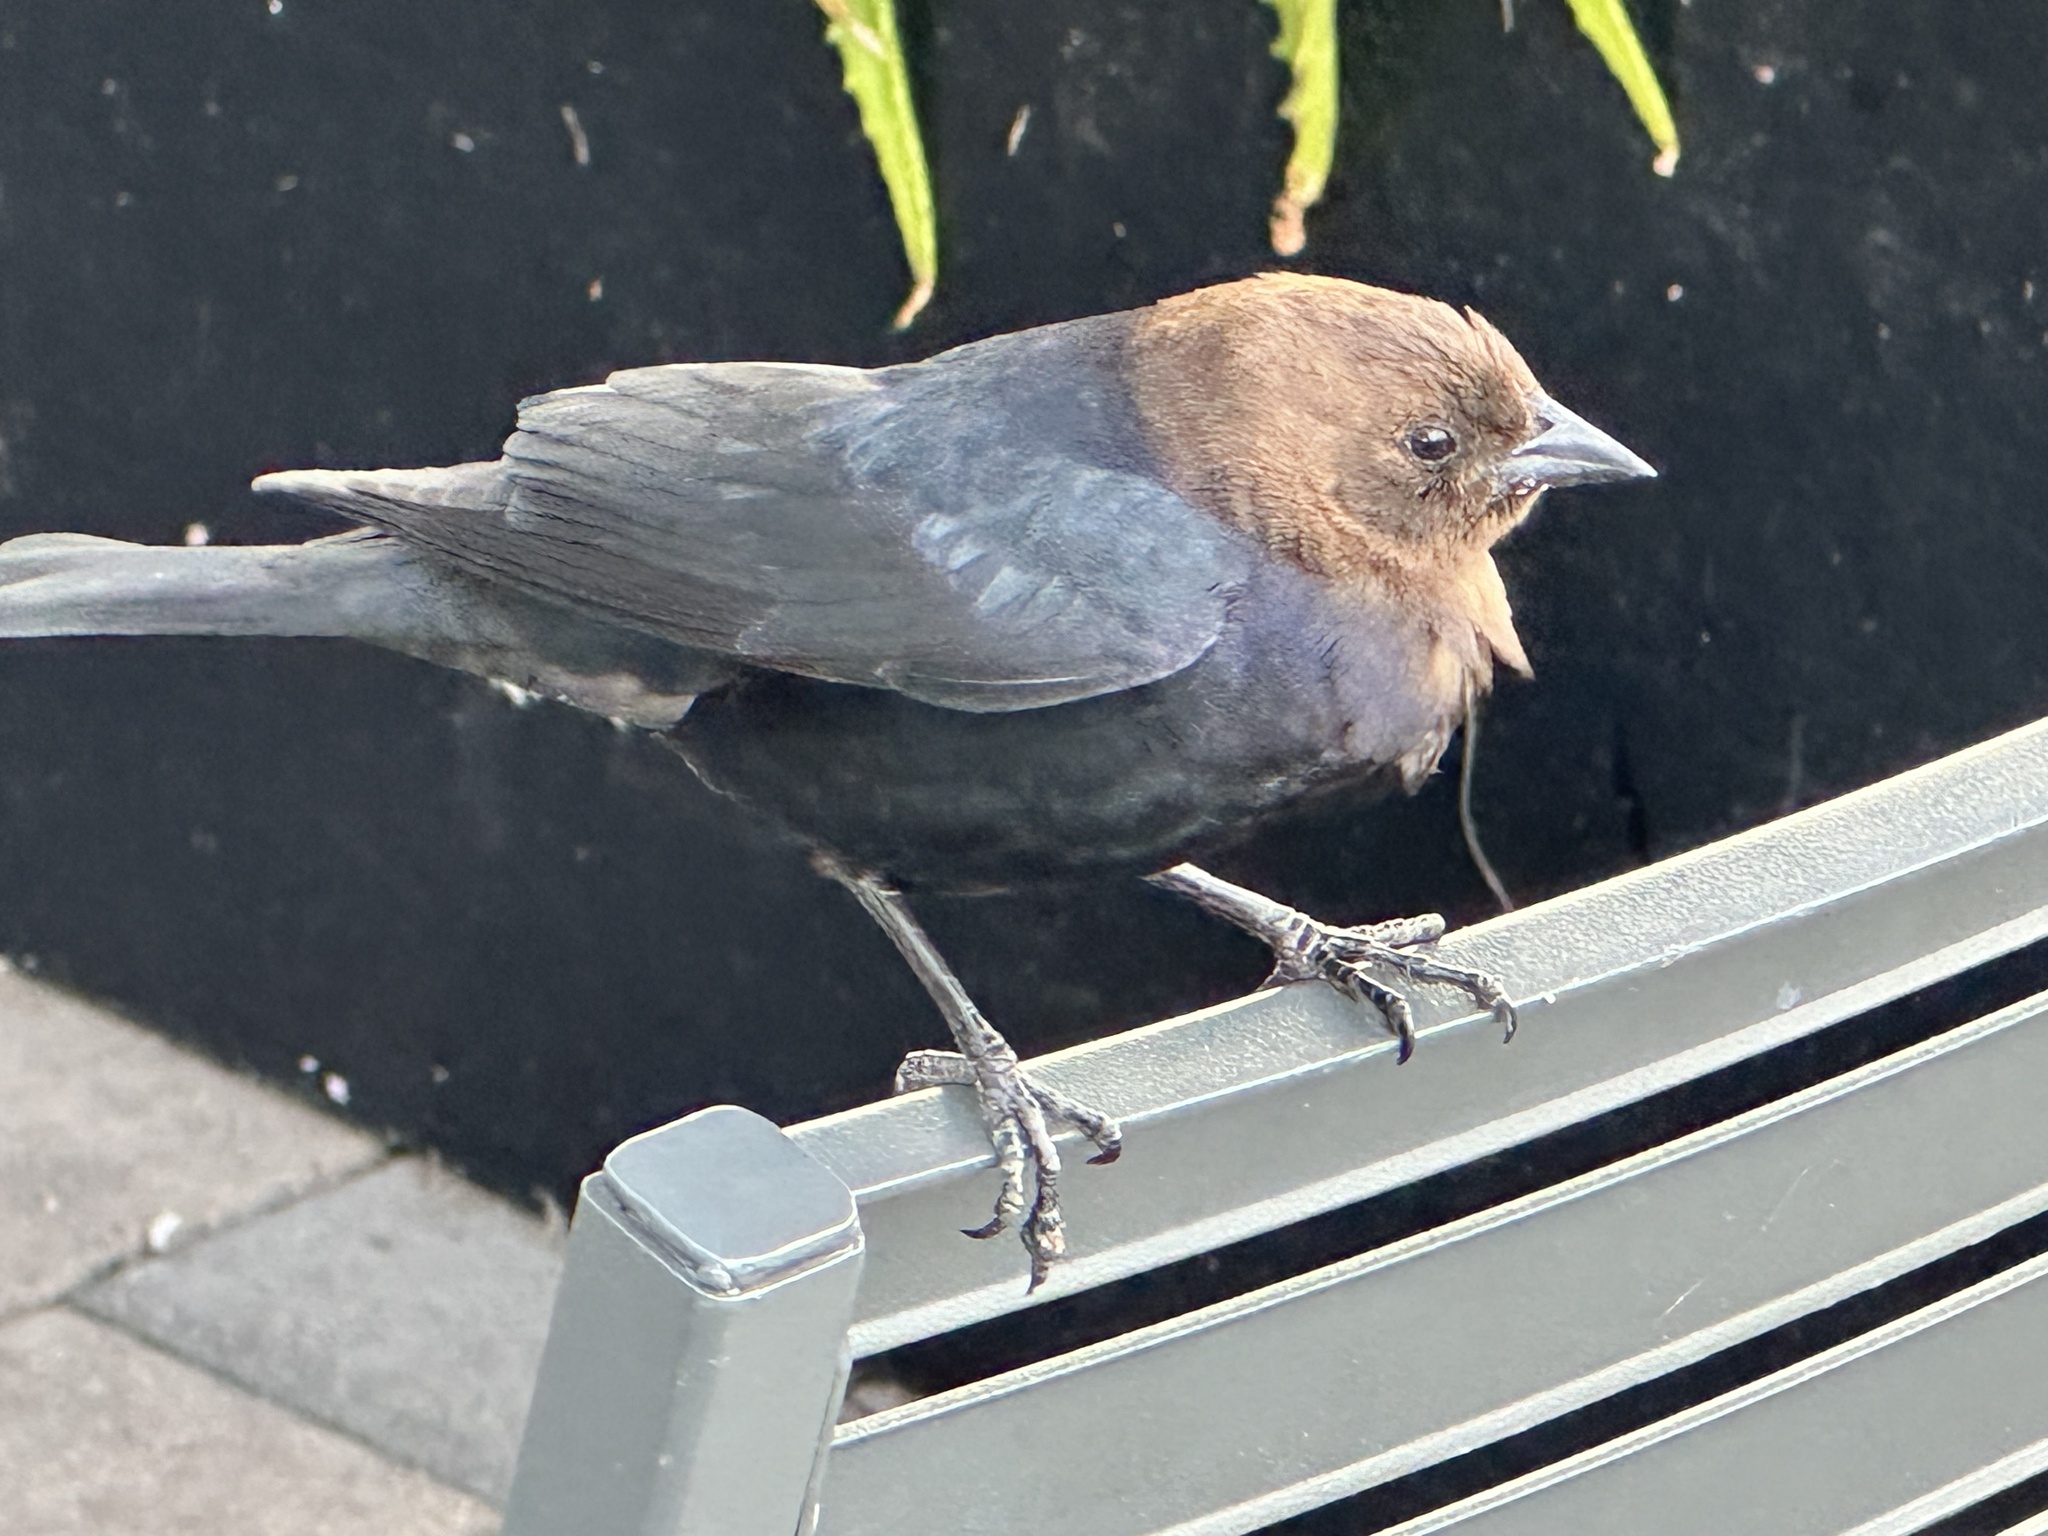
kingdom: Animalia
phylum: Chordata
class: Aves
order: Passeriformes
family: Icteridae
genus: Molothrus
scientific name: Molothrus ater
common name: Brown-headed cowbird
